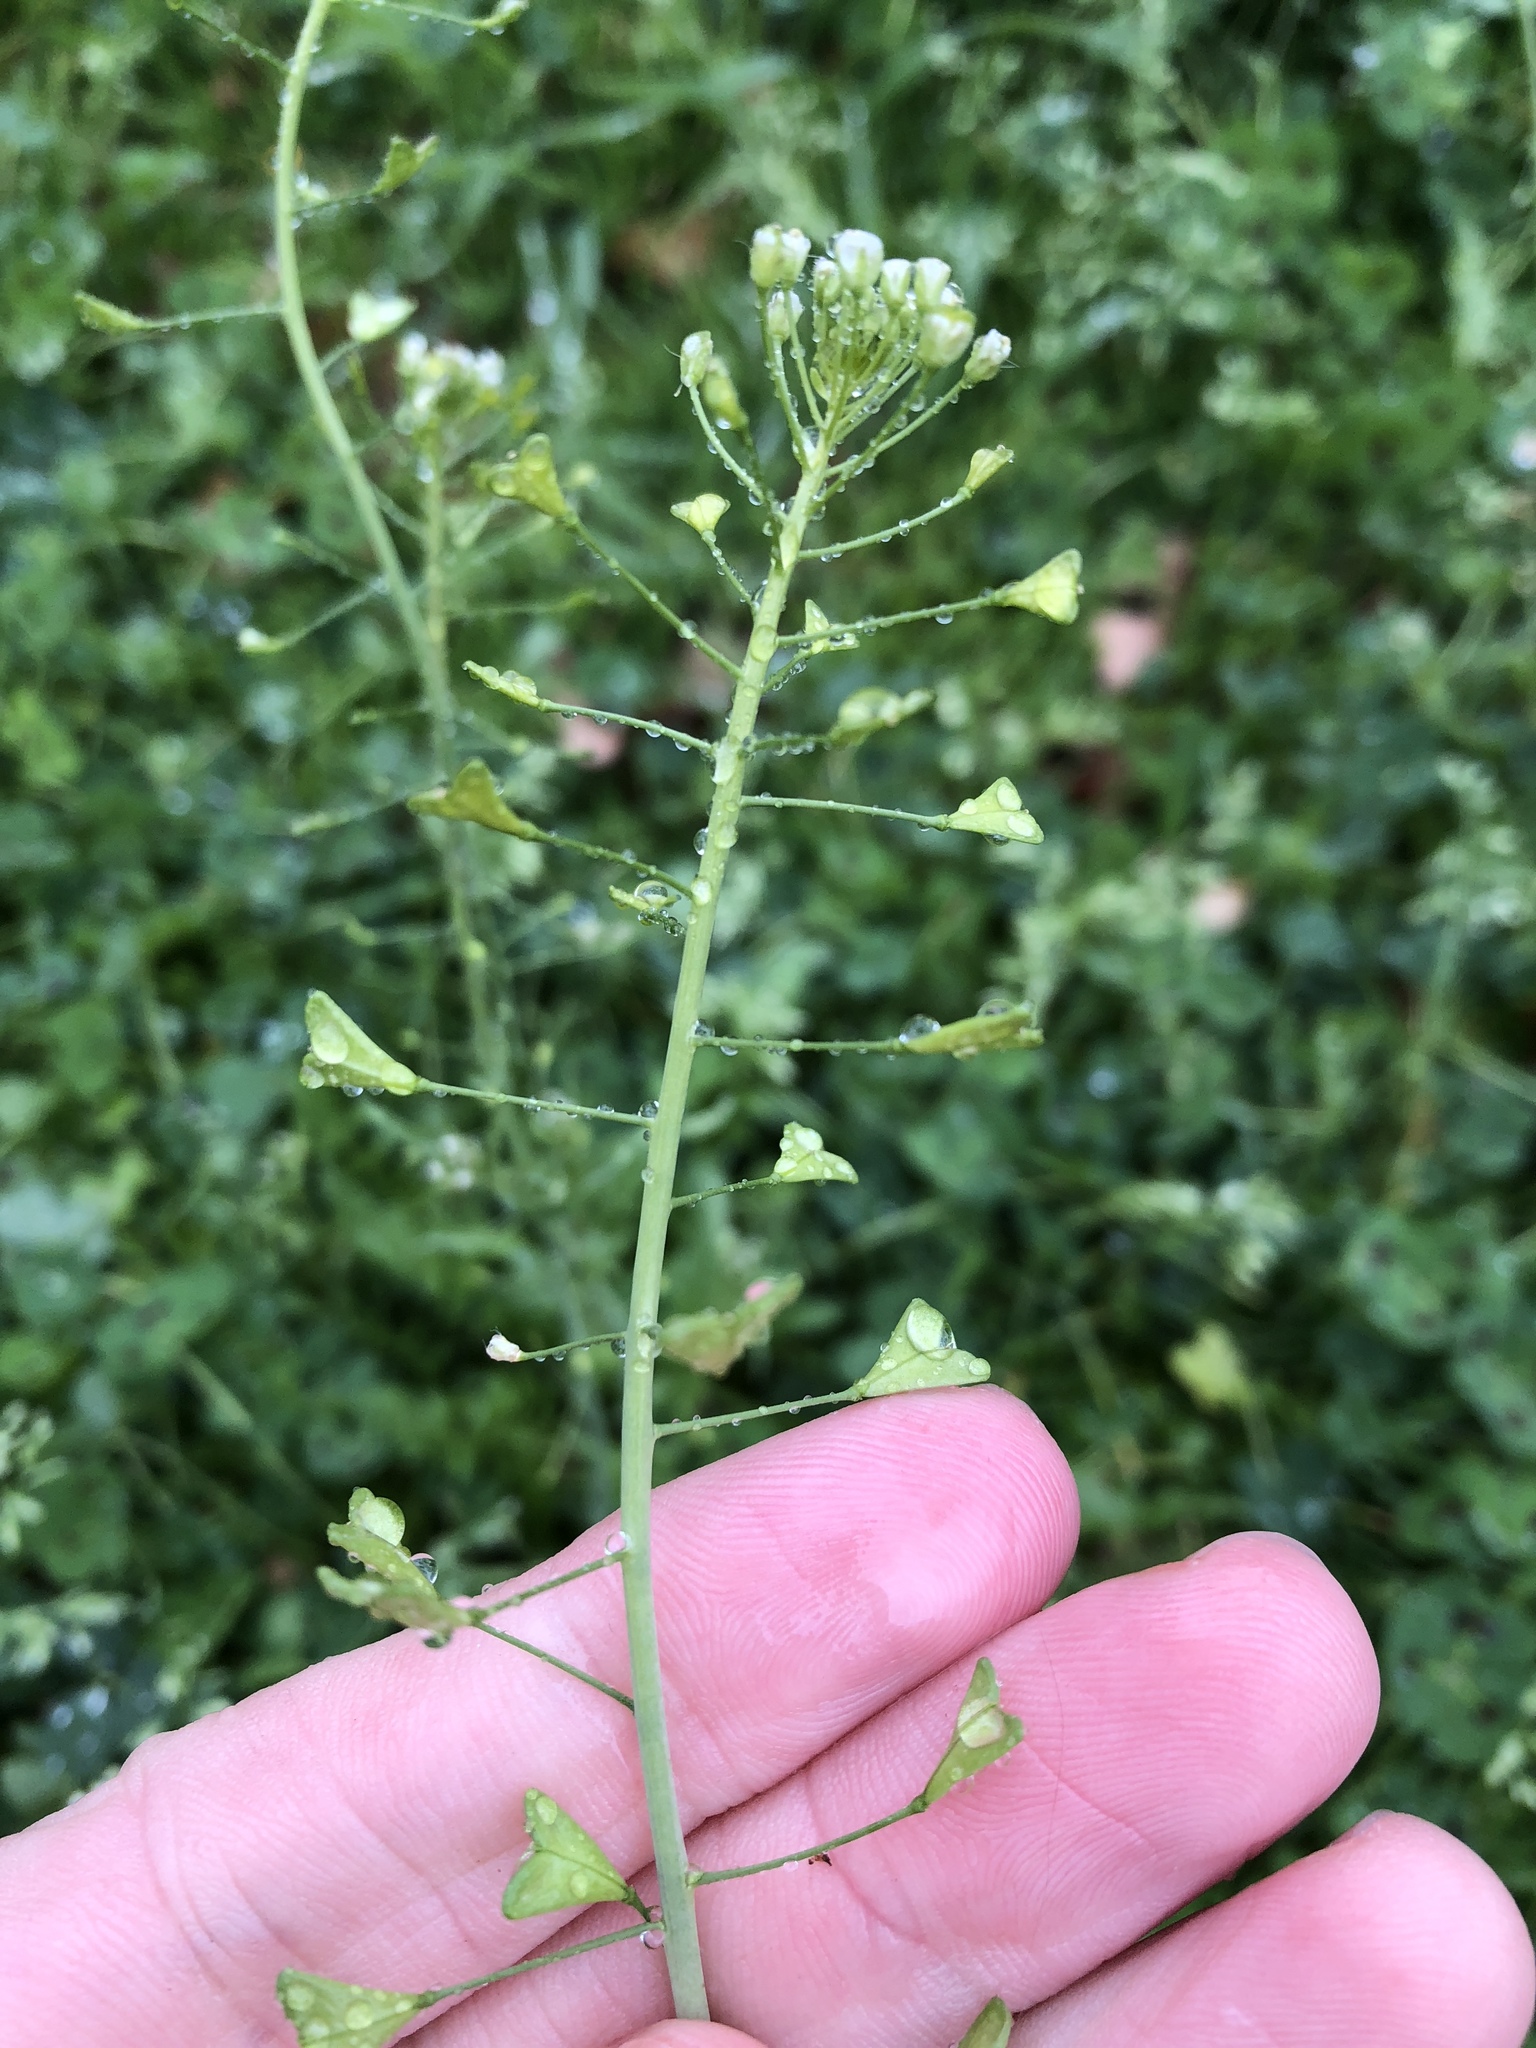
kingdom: Plantae
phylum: Tracheophyta
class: Magnoliopsida
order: Brassicales
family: Brassicaceae
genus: Capsella
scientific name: Capsella bursa-pastoris
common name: Shepherd's purse
